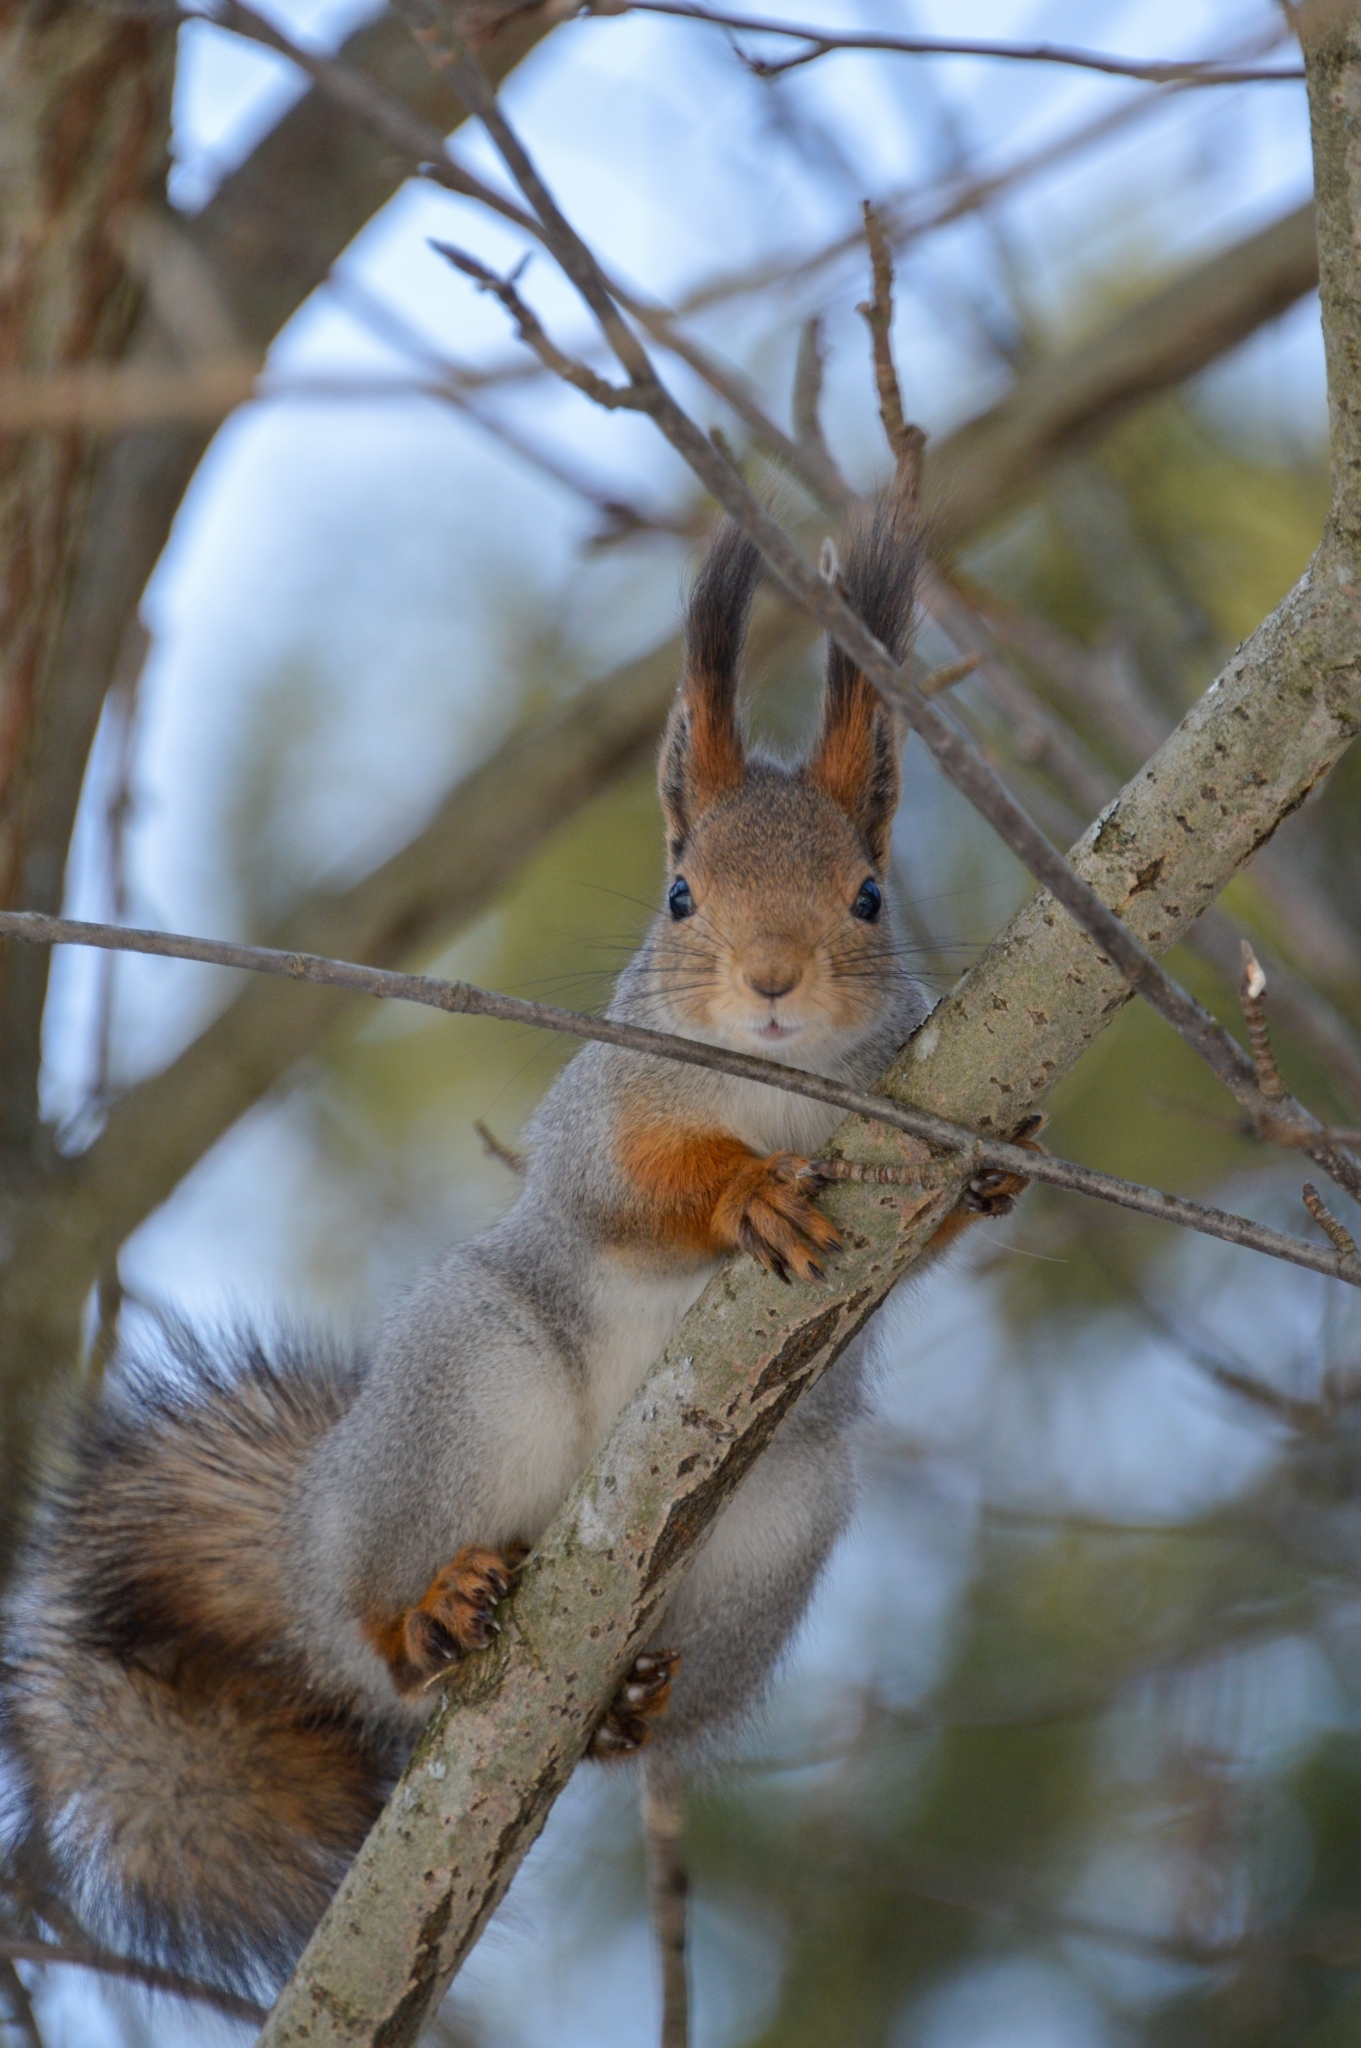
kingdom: Animalia
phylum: Chordata
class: Mammalia
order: Rodentia
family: Sciuridae
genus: Sciurus
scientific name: Sciurus vulgaris
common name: Eurasian red squirrel
